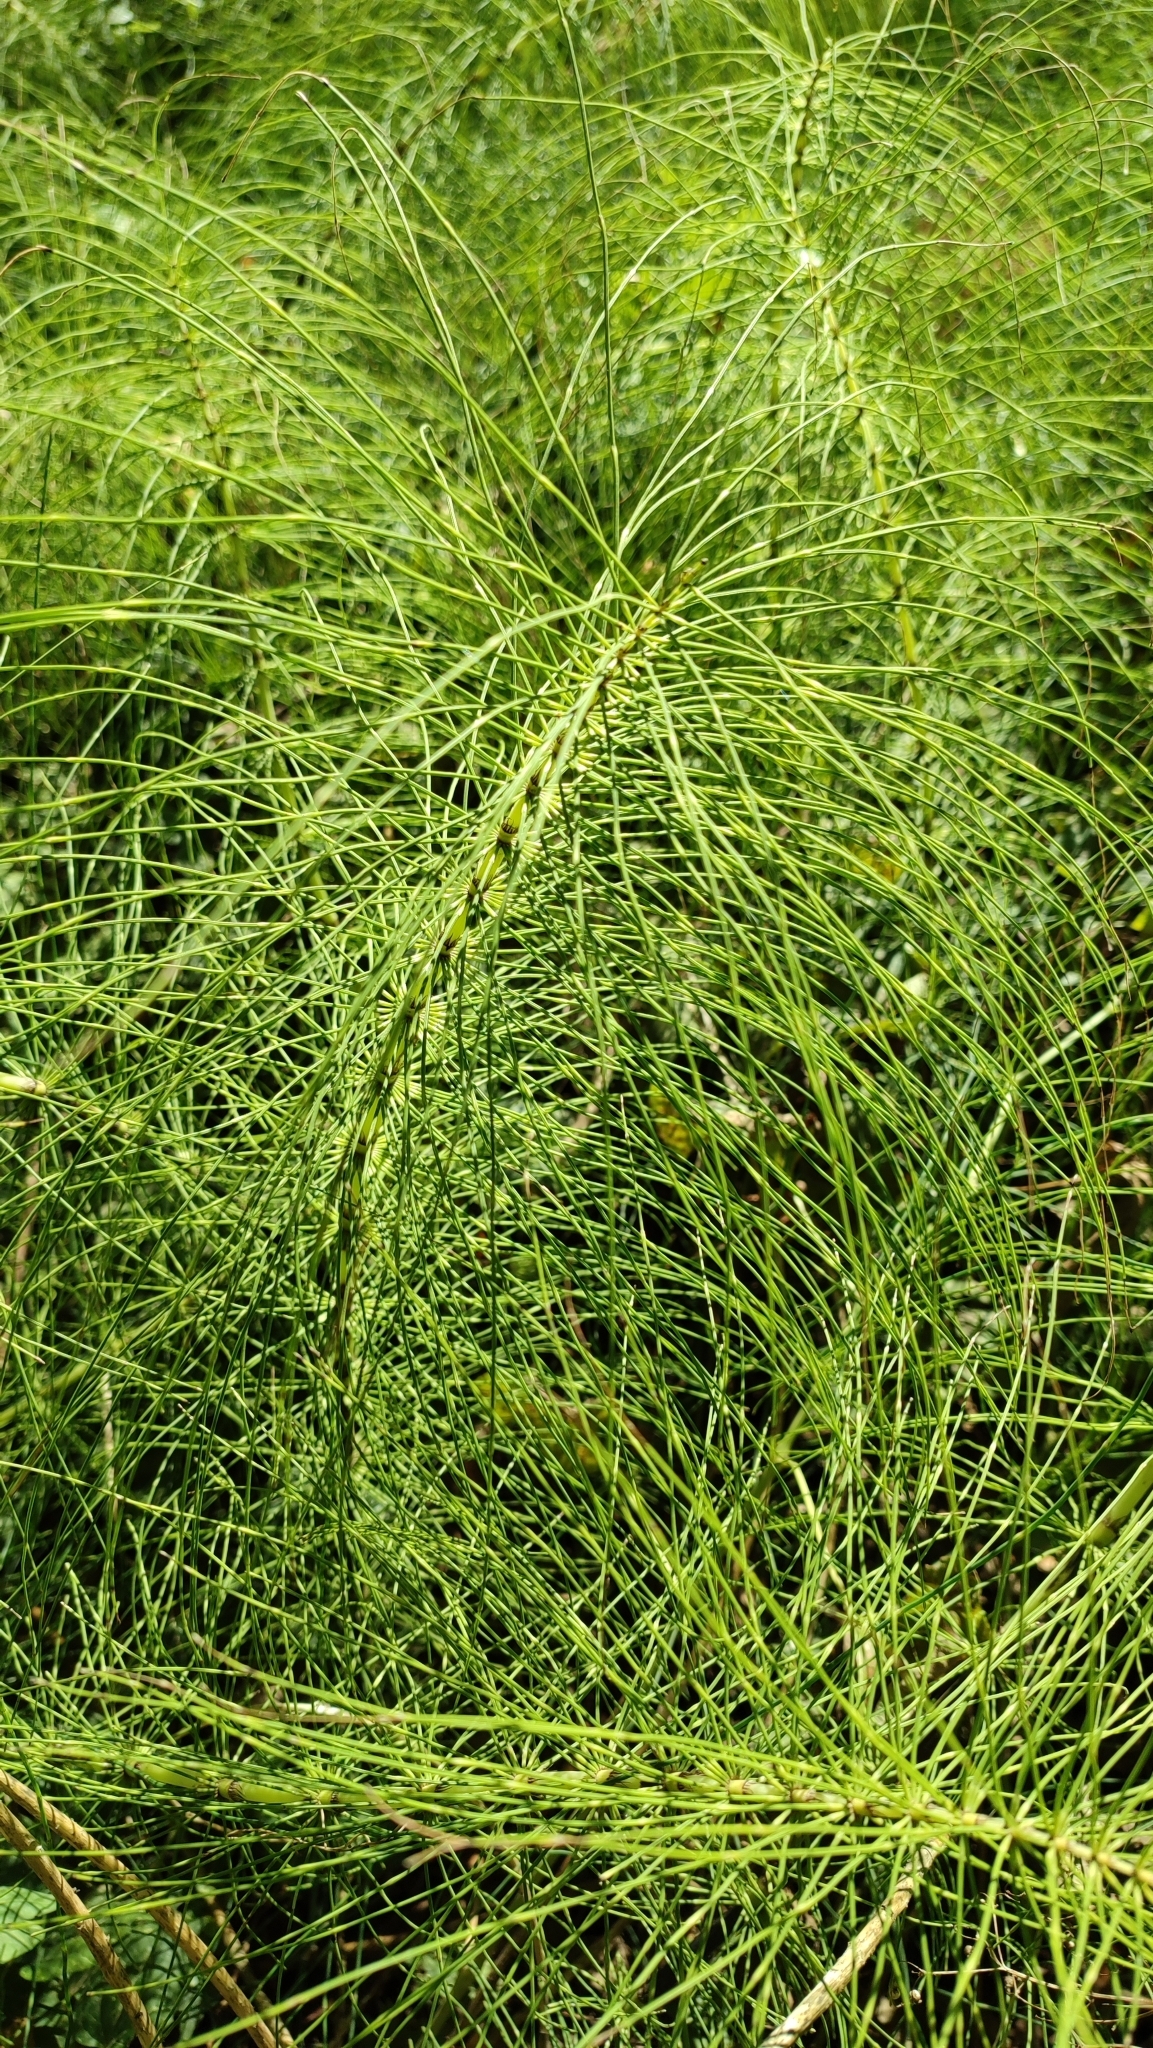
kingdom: Plantae
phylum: Tracheophyta
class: Polypodiopsida
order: Equisetales
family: Equisetaceae
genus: Equisetum
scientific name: Equisetum telmateia
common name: Great horsetail
